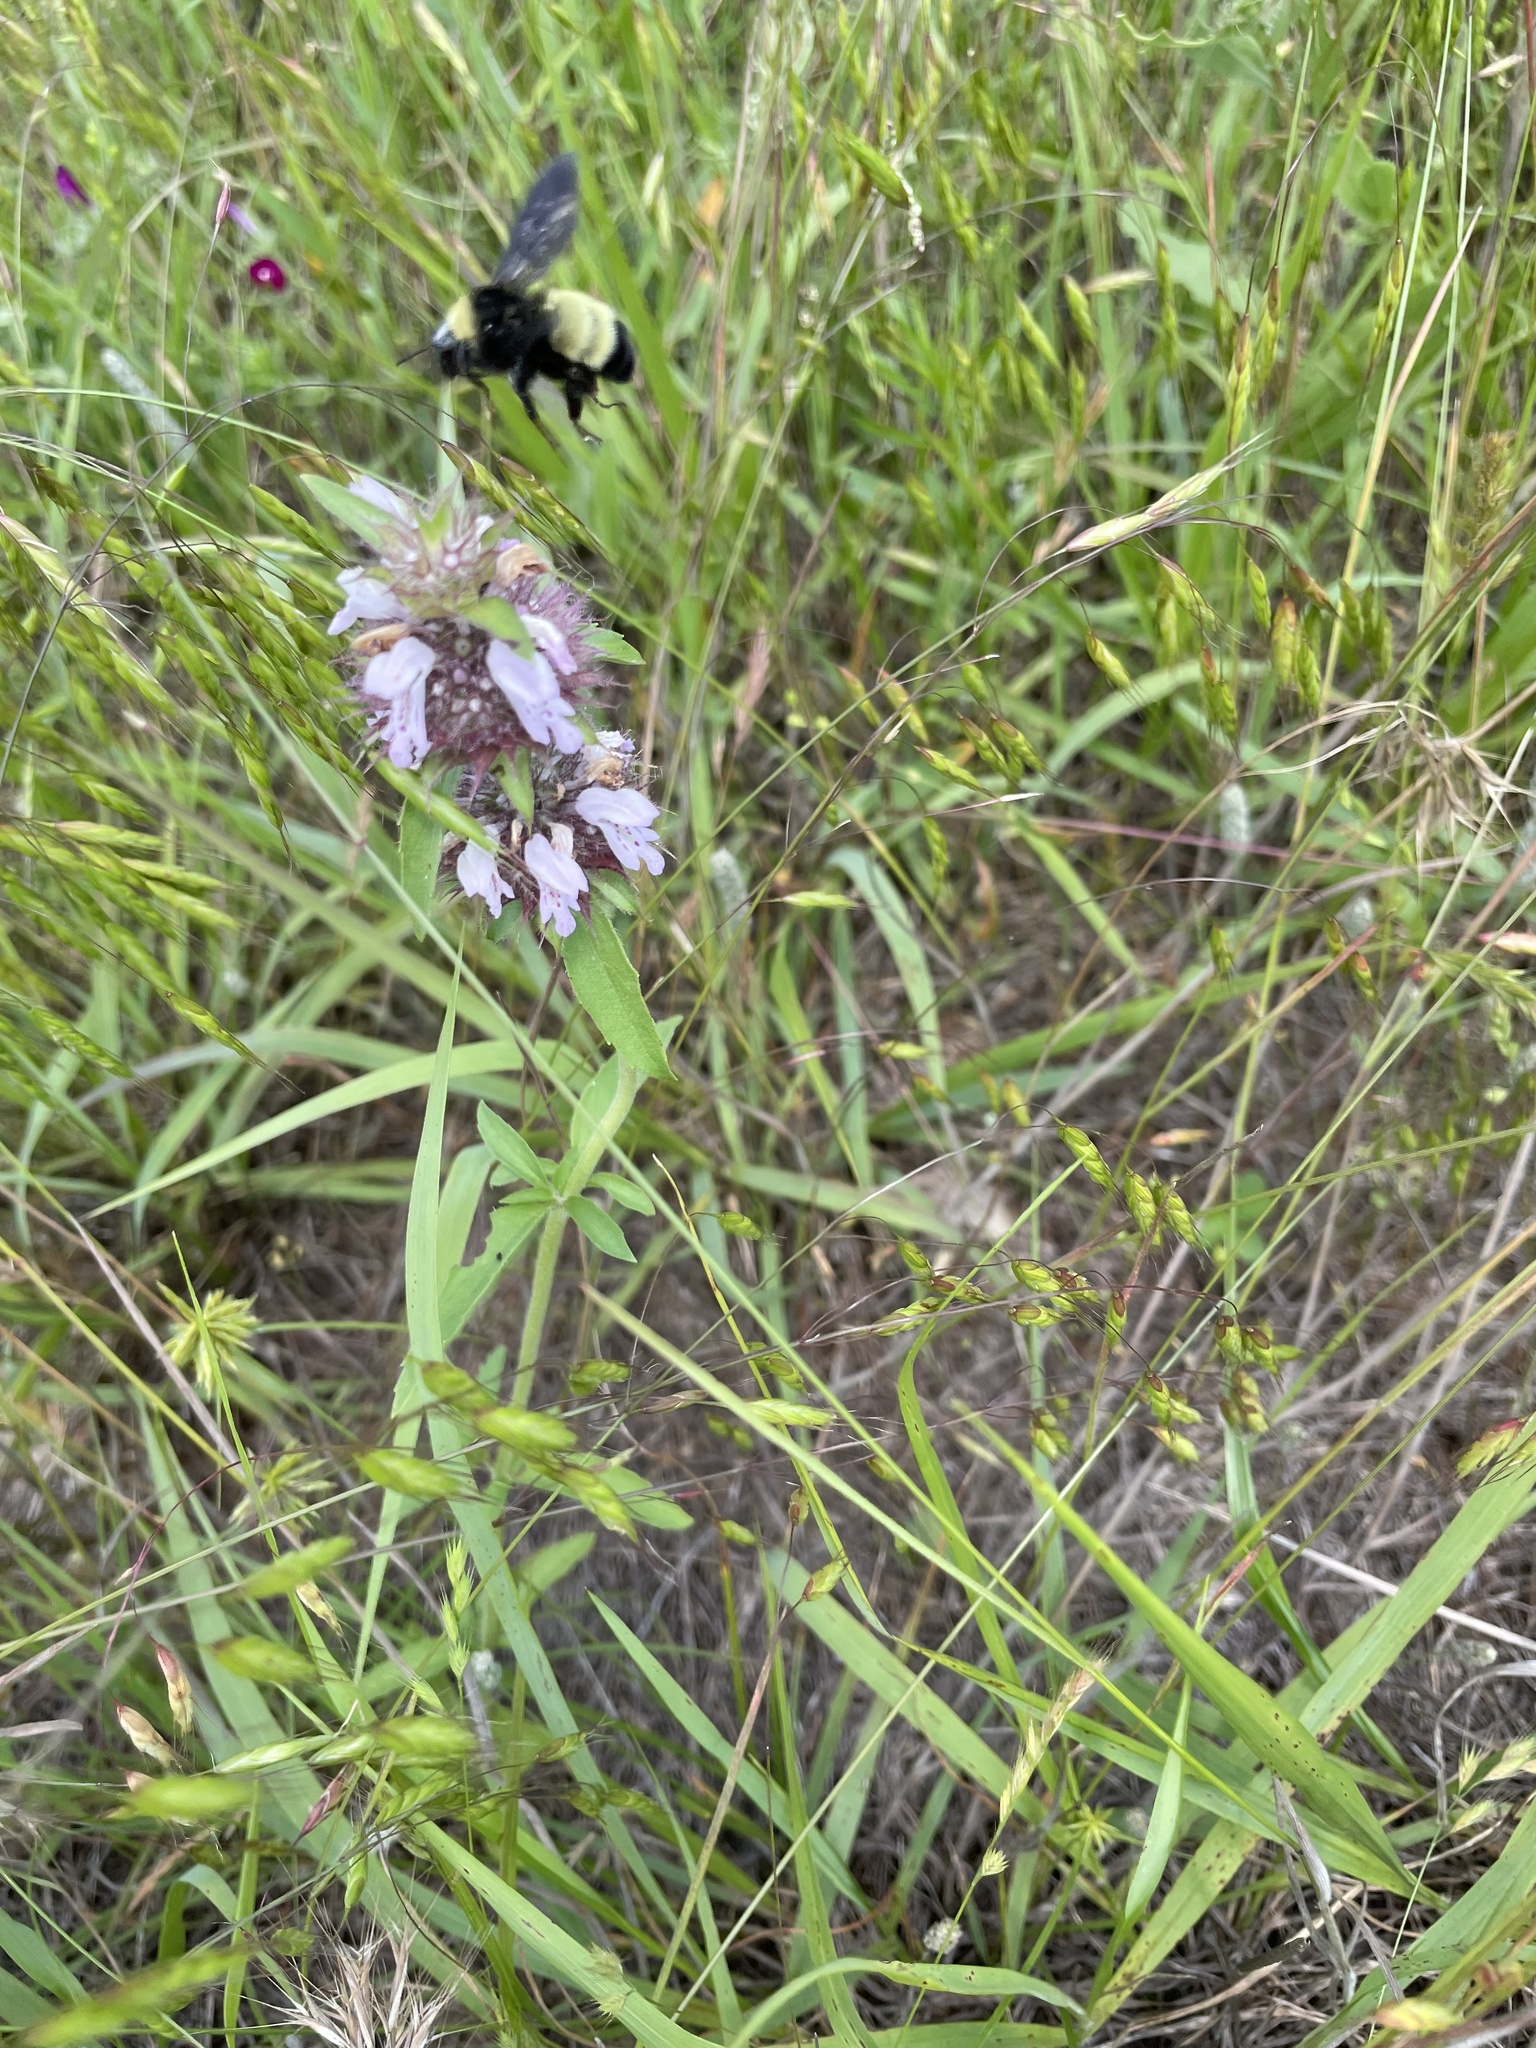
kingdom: Animalia
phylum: Arthropoda
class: Insecta
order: Hymenoptera
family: Apidae
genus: Bombus
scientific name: Bombus pensylvanicus
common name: Bumble bee
